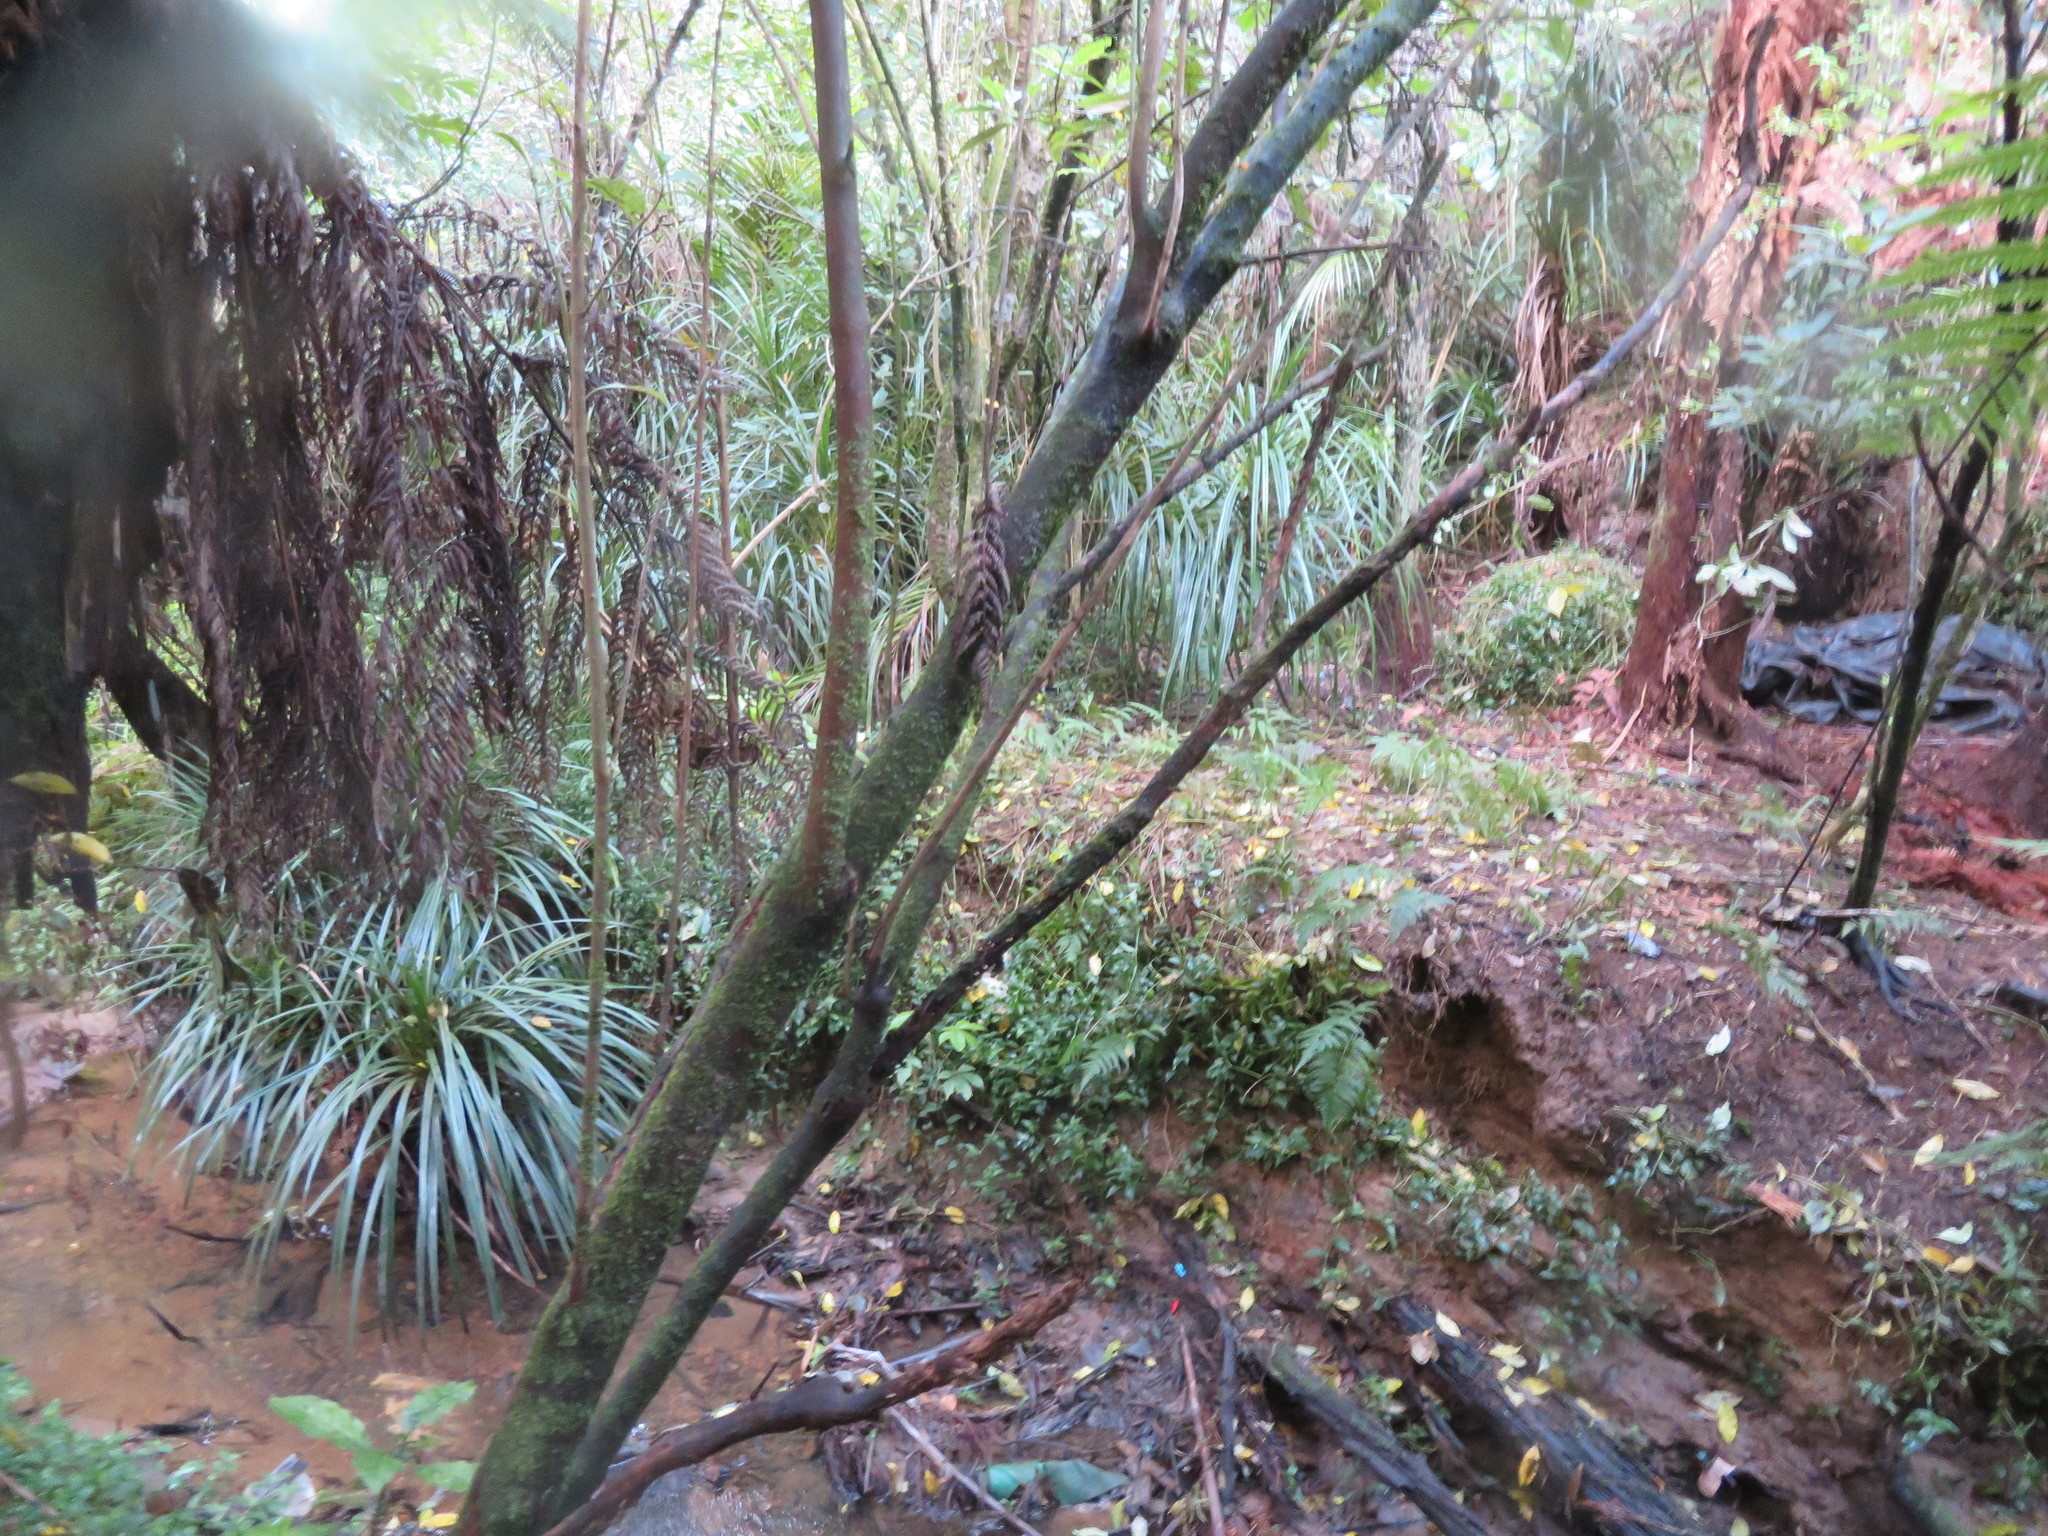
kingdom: Plantae
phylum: Tracheophyta
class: Liliopsida
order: Commelinales
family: Commelinaceae
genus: Tradescantia
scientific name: Tradescantia fluminensis
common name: Wandering-jew
